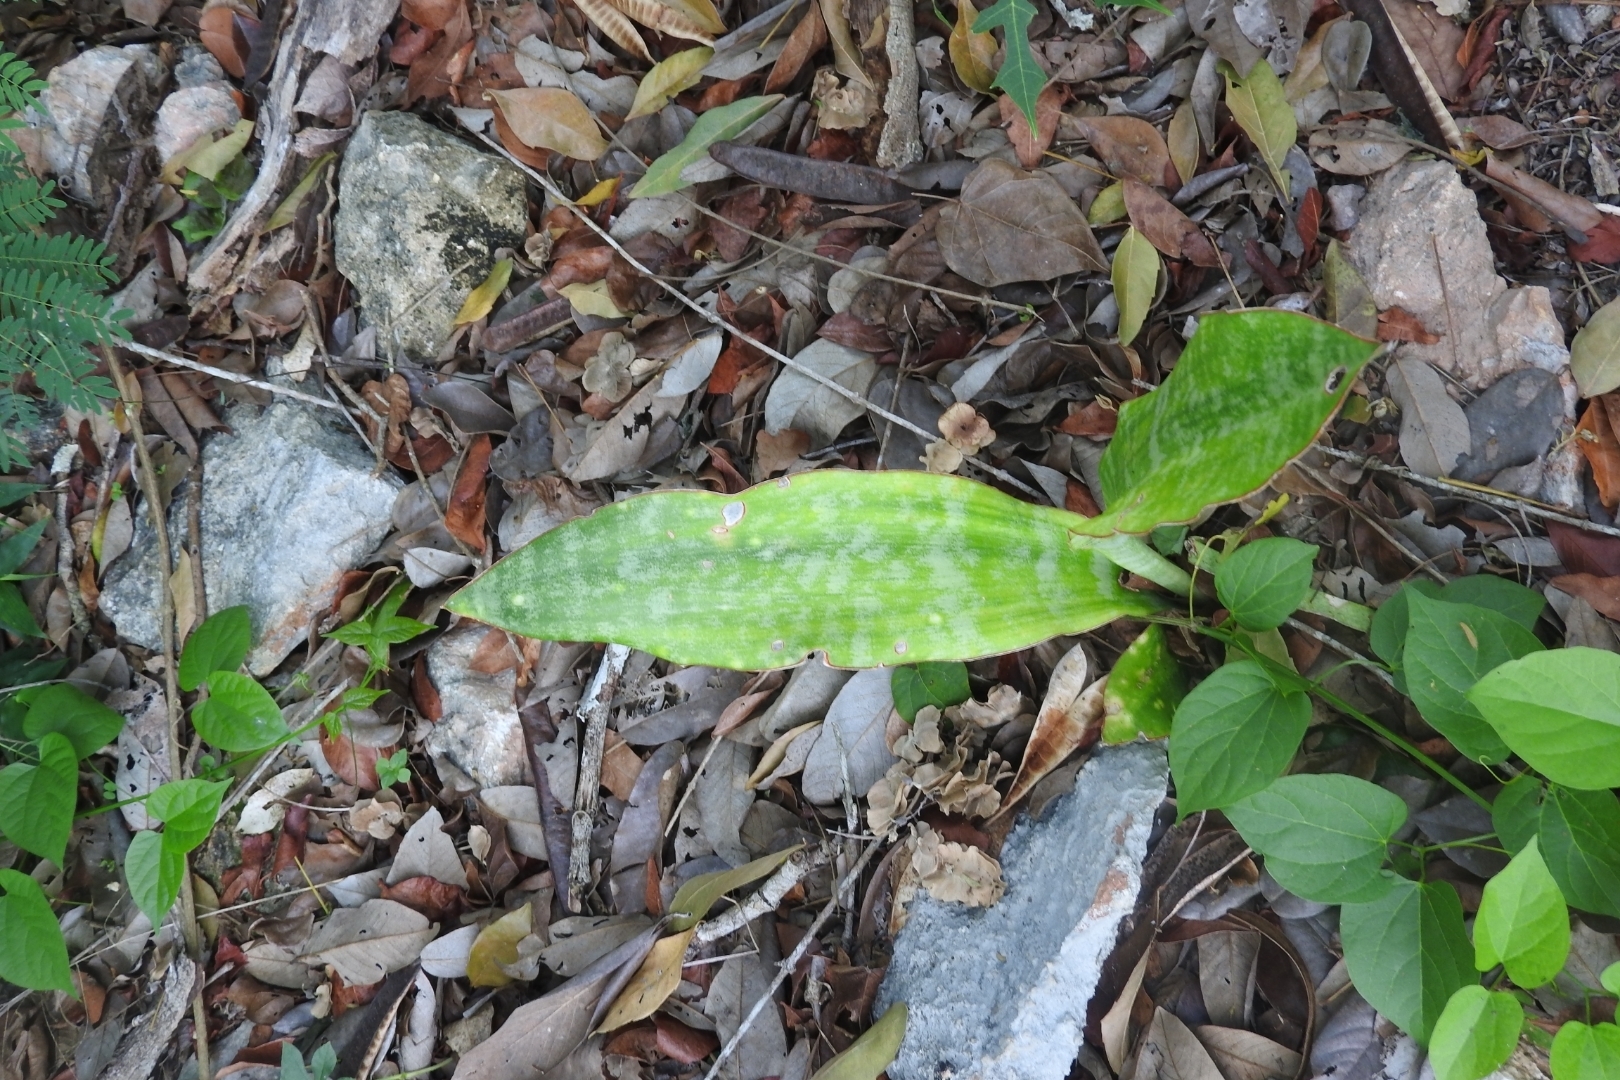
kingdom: Plantae
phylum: Tracheophyta
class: Liliopsida
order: Asparagales
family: Asparagaceae
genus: Dracaena
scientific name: Dracaena hyacinthoides
